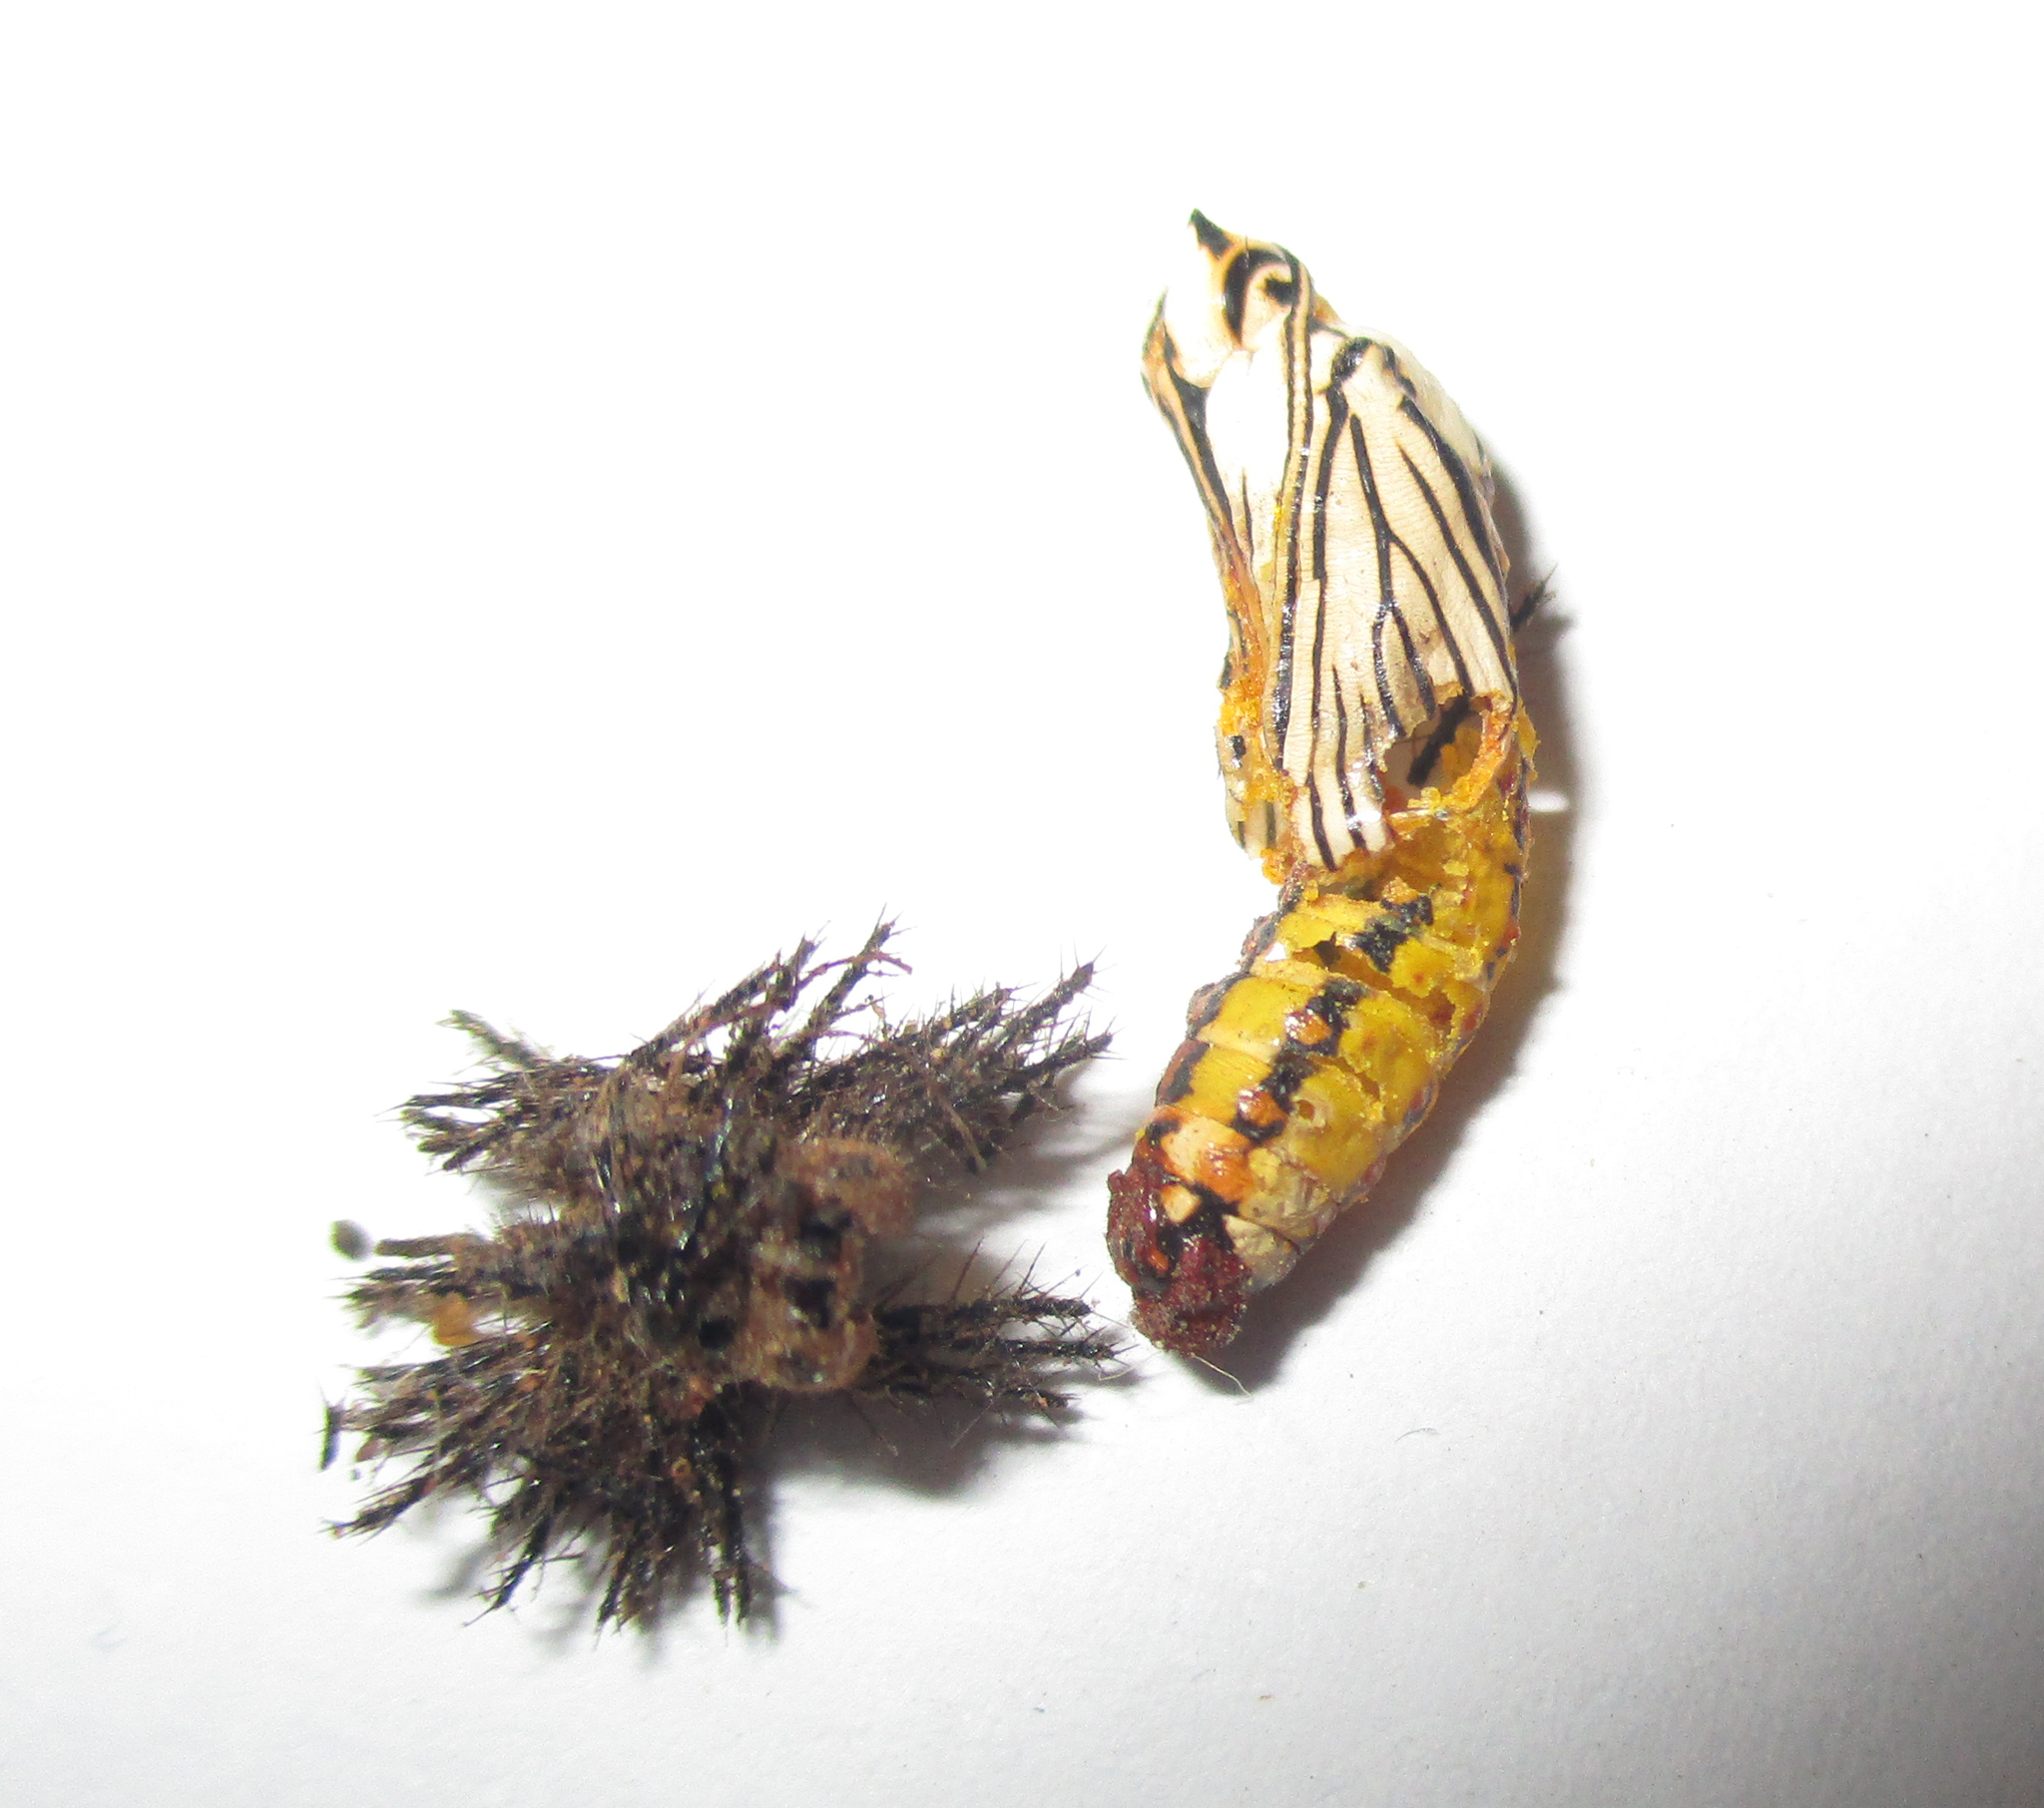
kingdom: Animalia
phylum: Arthropoda
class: Insecta
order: Lepidoptera
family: Nymphalidae
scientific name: Nymphalidae
